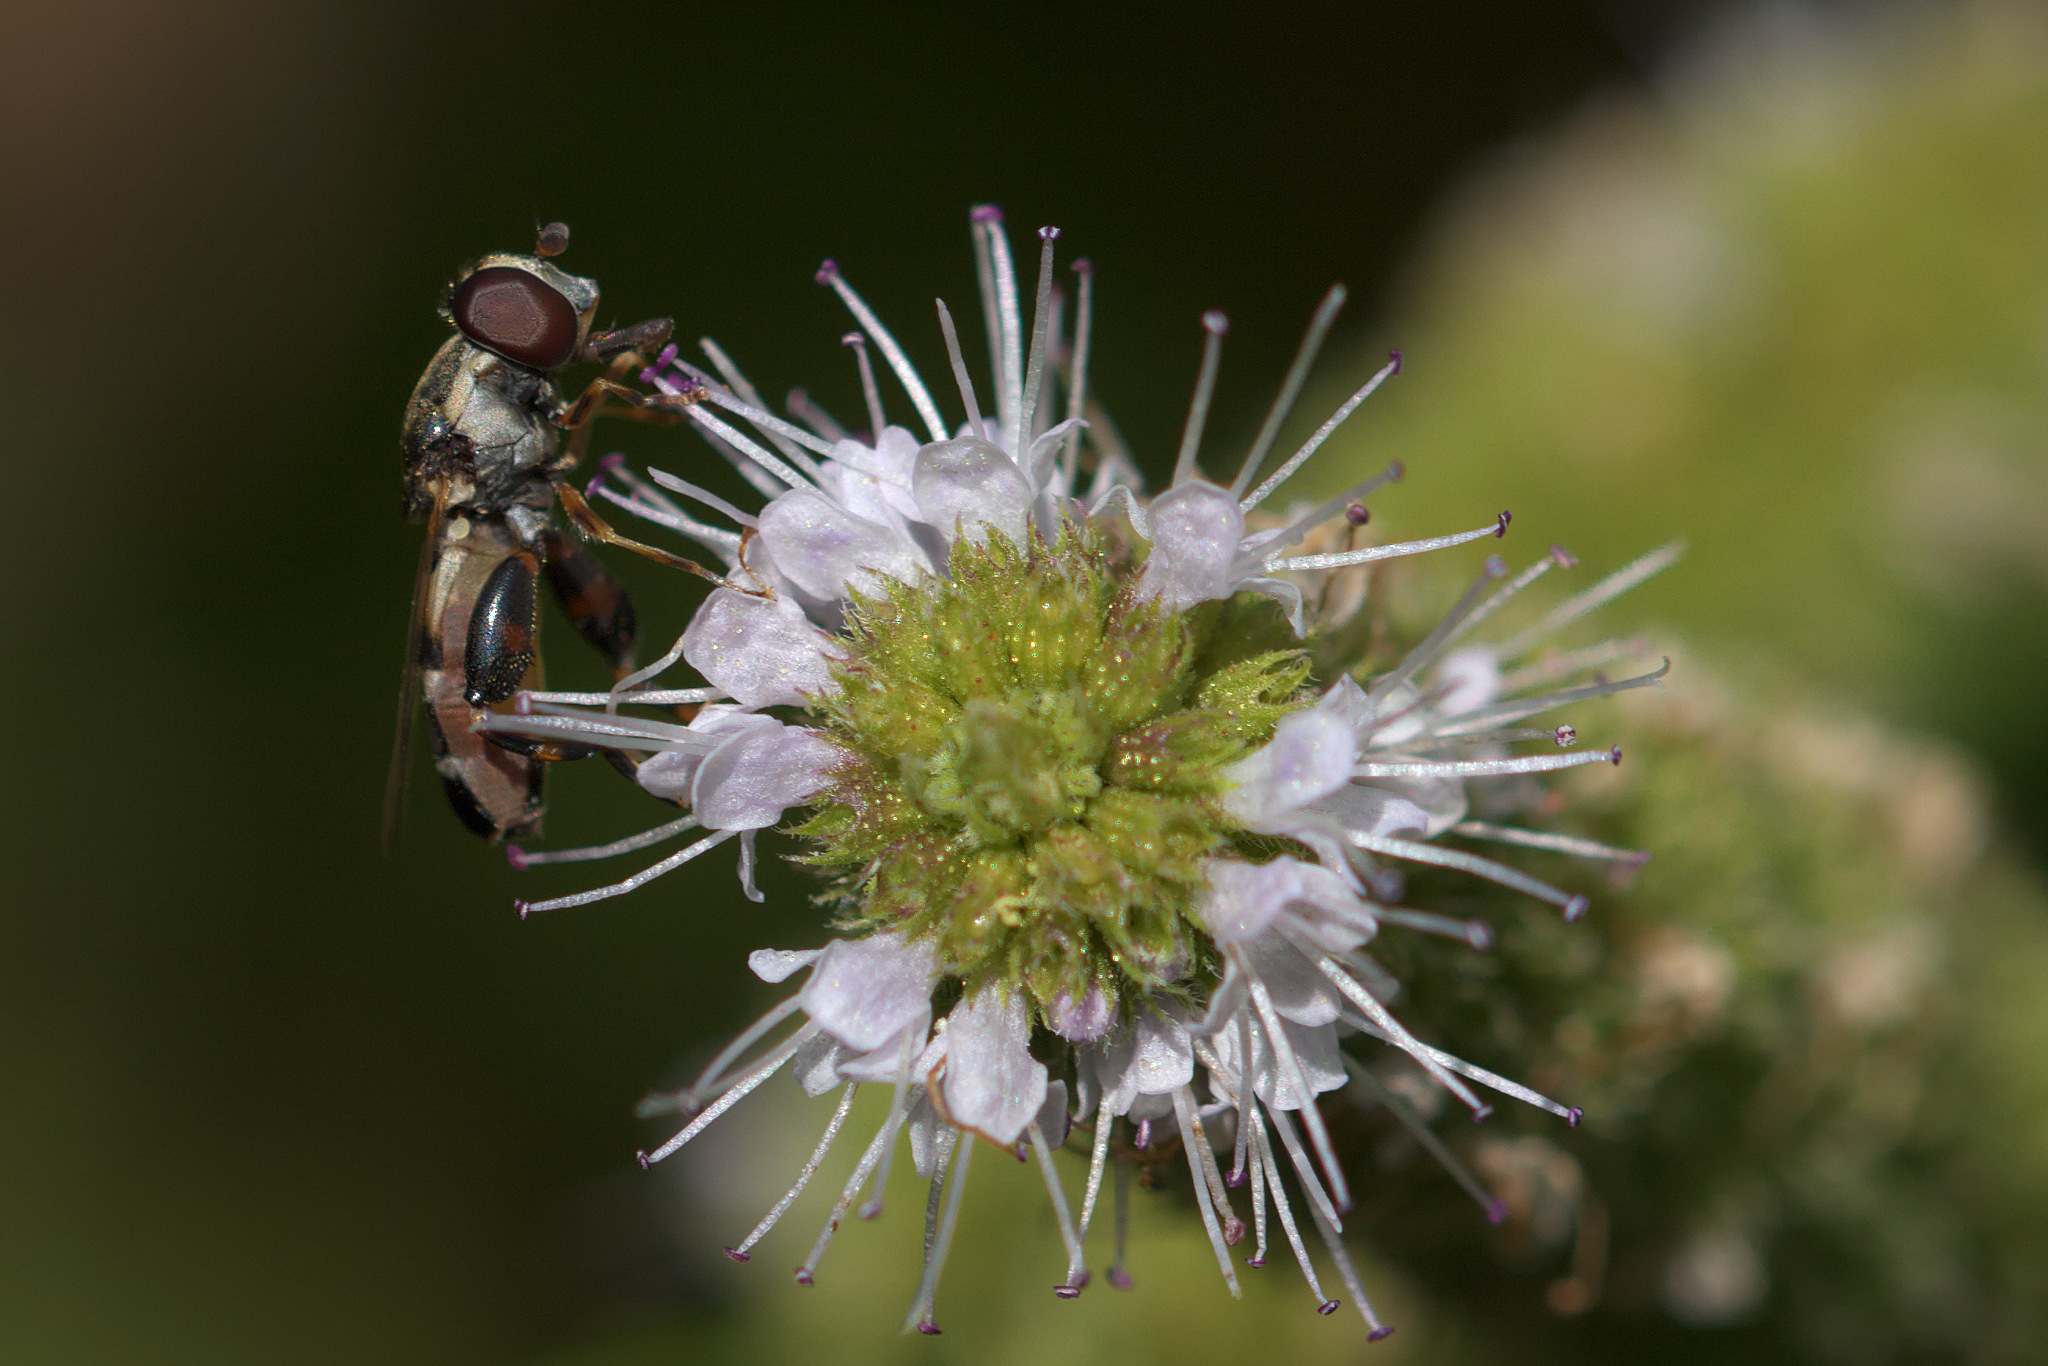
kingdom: Animalia
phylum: Arthropoda
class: Insecta
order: Diptera
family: Syrphidae
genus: Syritta
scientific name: Syritta pipiens
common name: Hover fly
